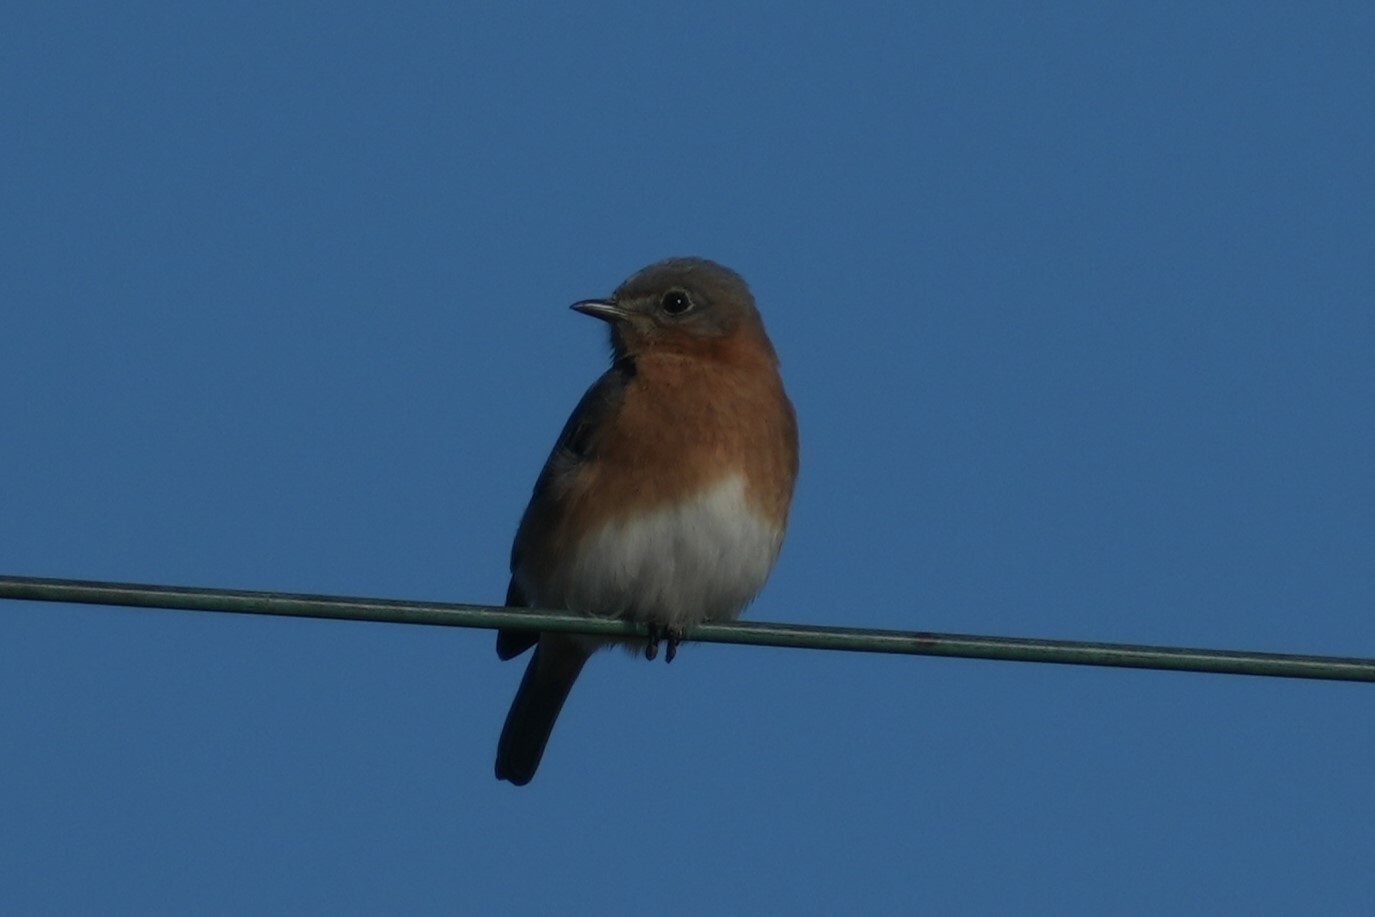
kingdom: Animalia
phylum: Chordata
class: Aves
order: Passeriformes
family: Turdidae
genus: Sialia
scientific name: Sialia sialis
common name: Eastern bluebird
